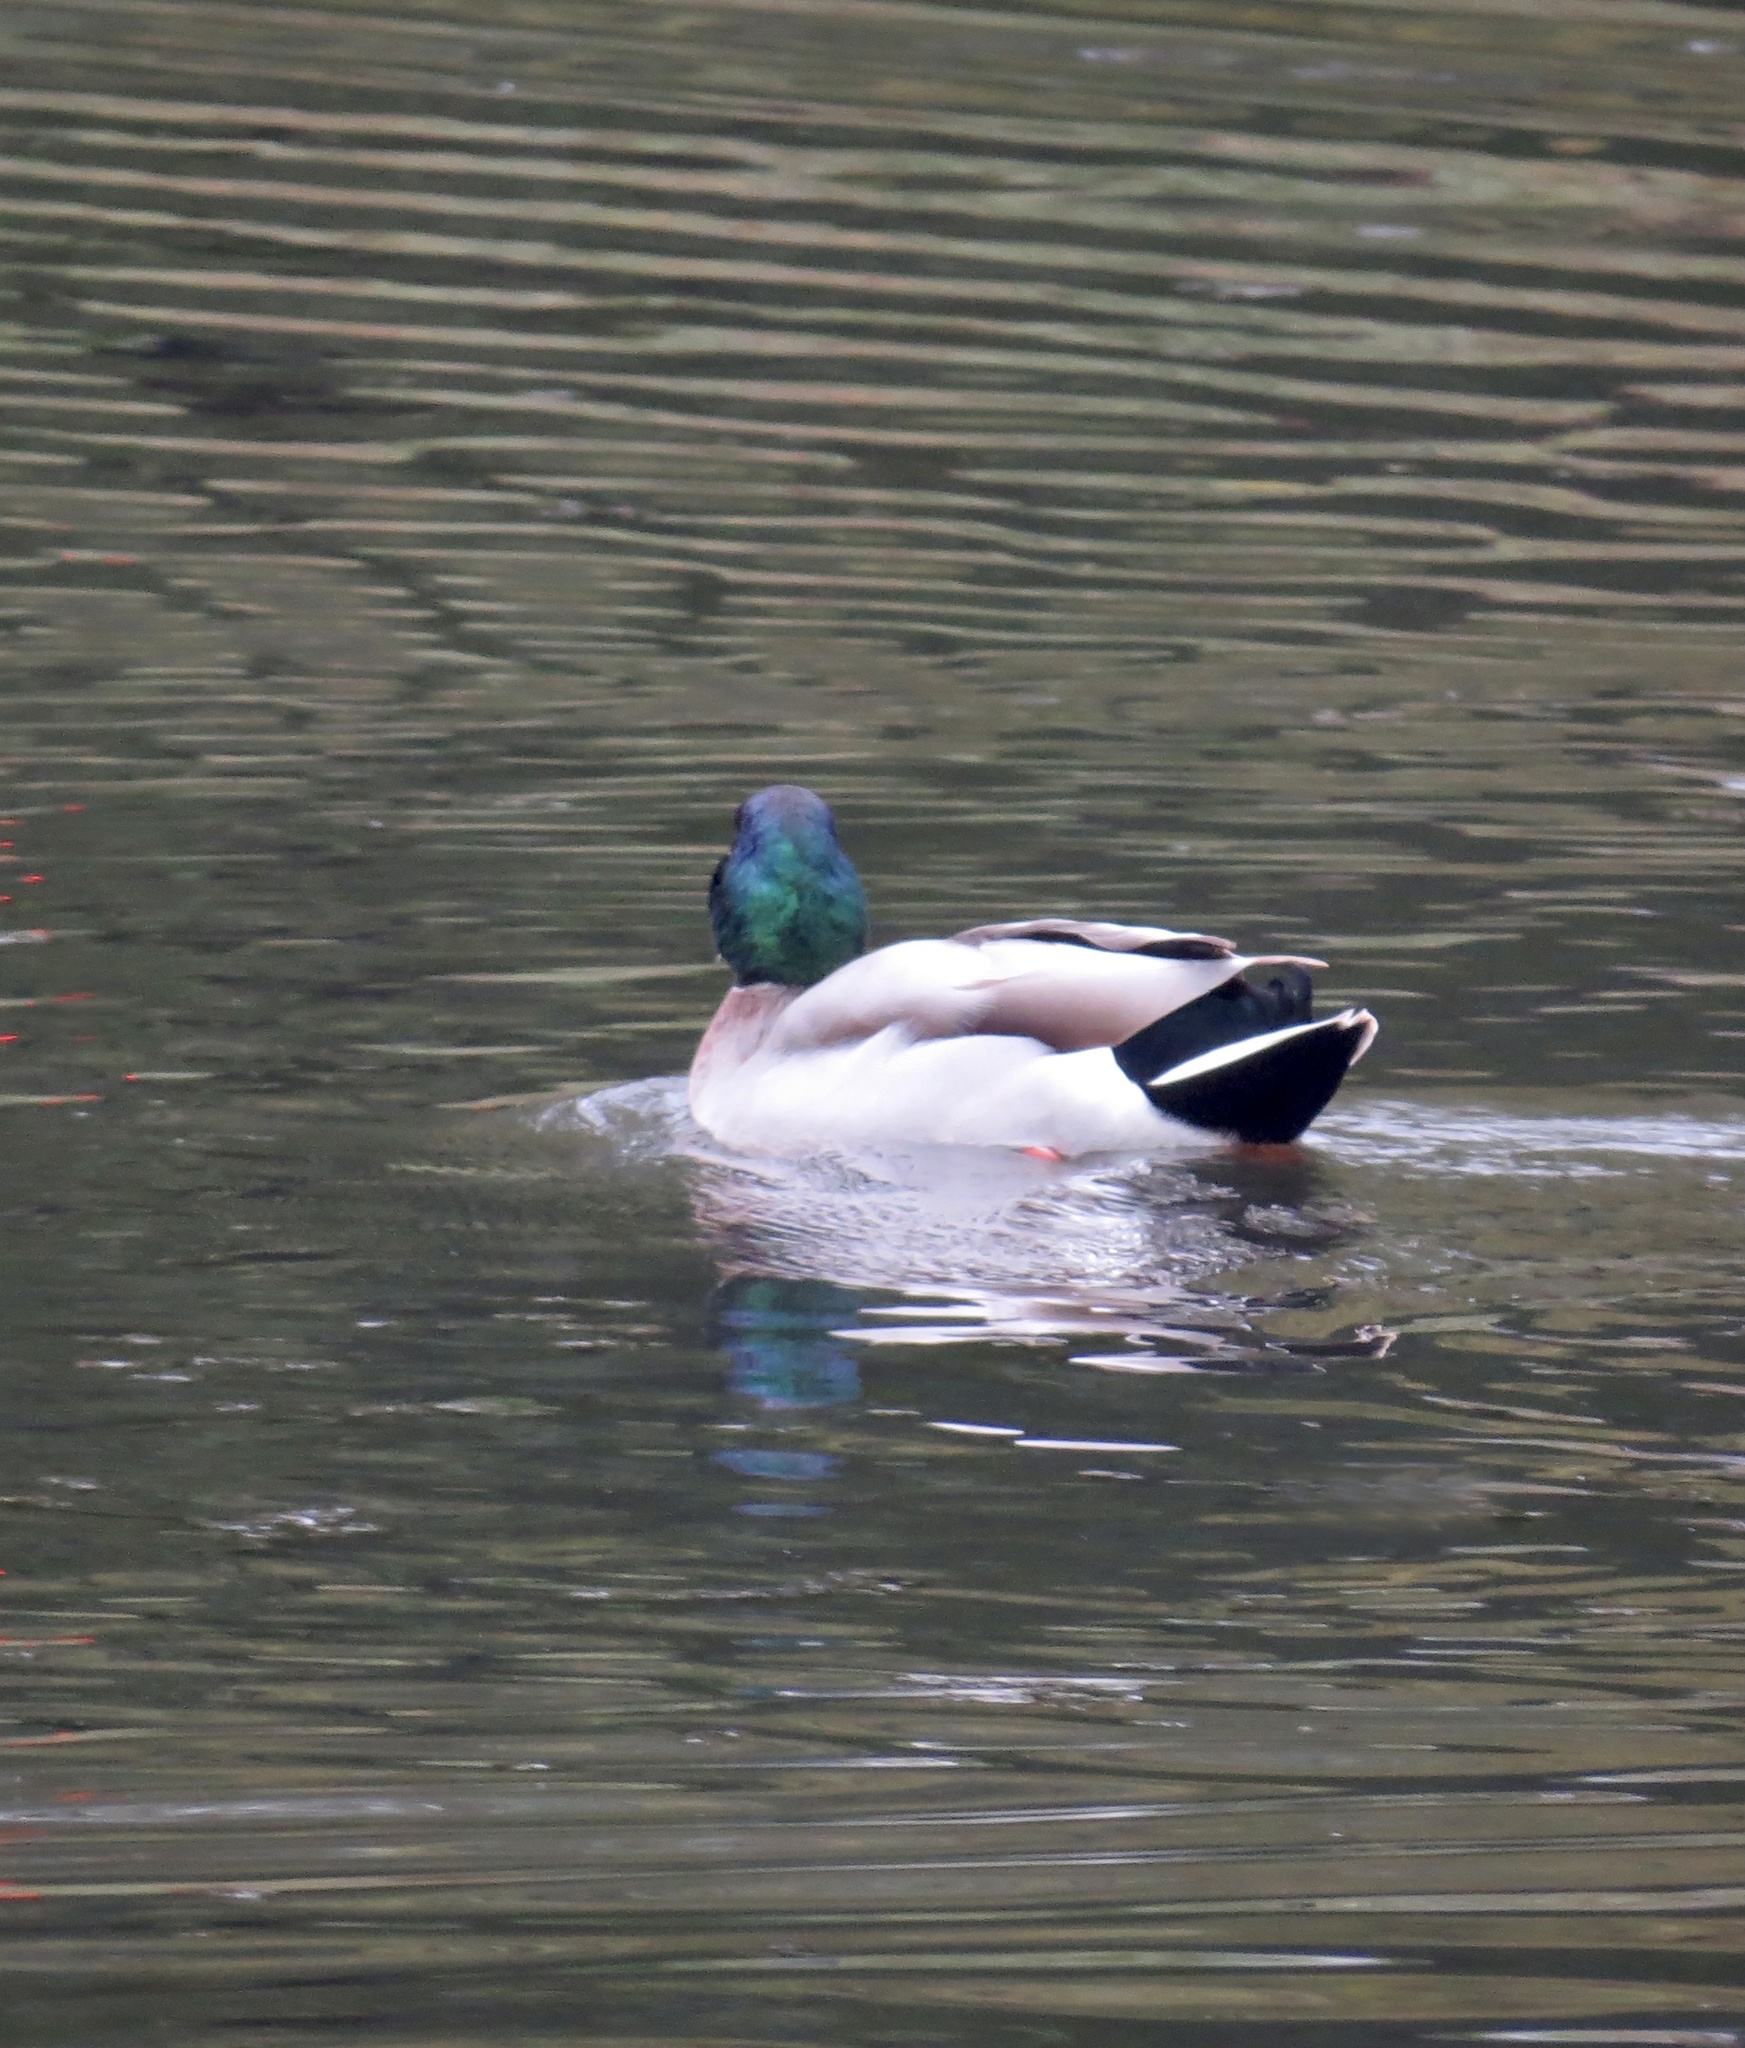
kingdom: Animalia
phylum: Chordata
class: Aves
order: Anseriformes
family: Anatidae
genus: Anas
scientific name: Anas platyrhynchos
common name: Mallard
